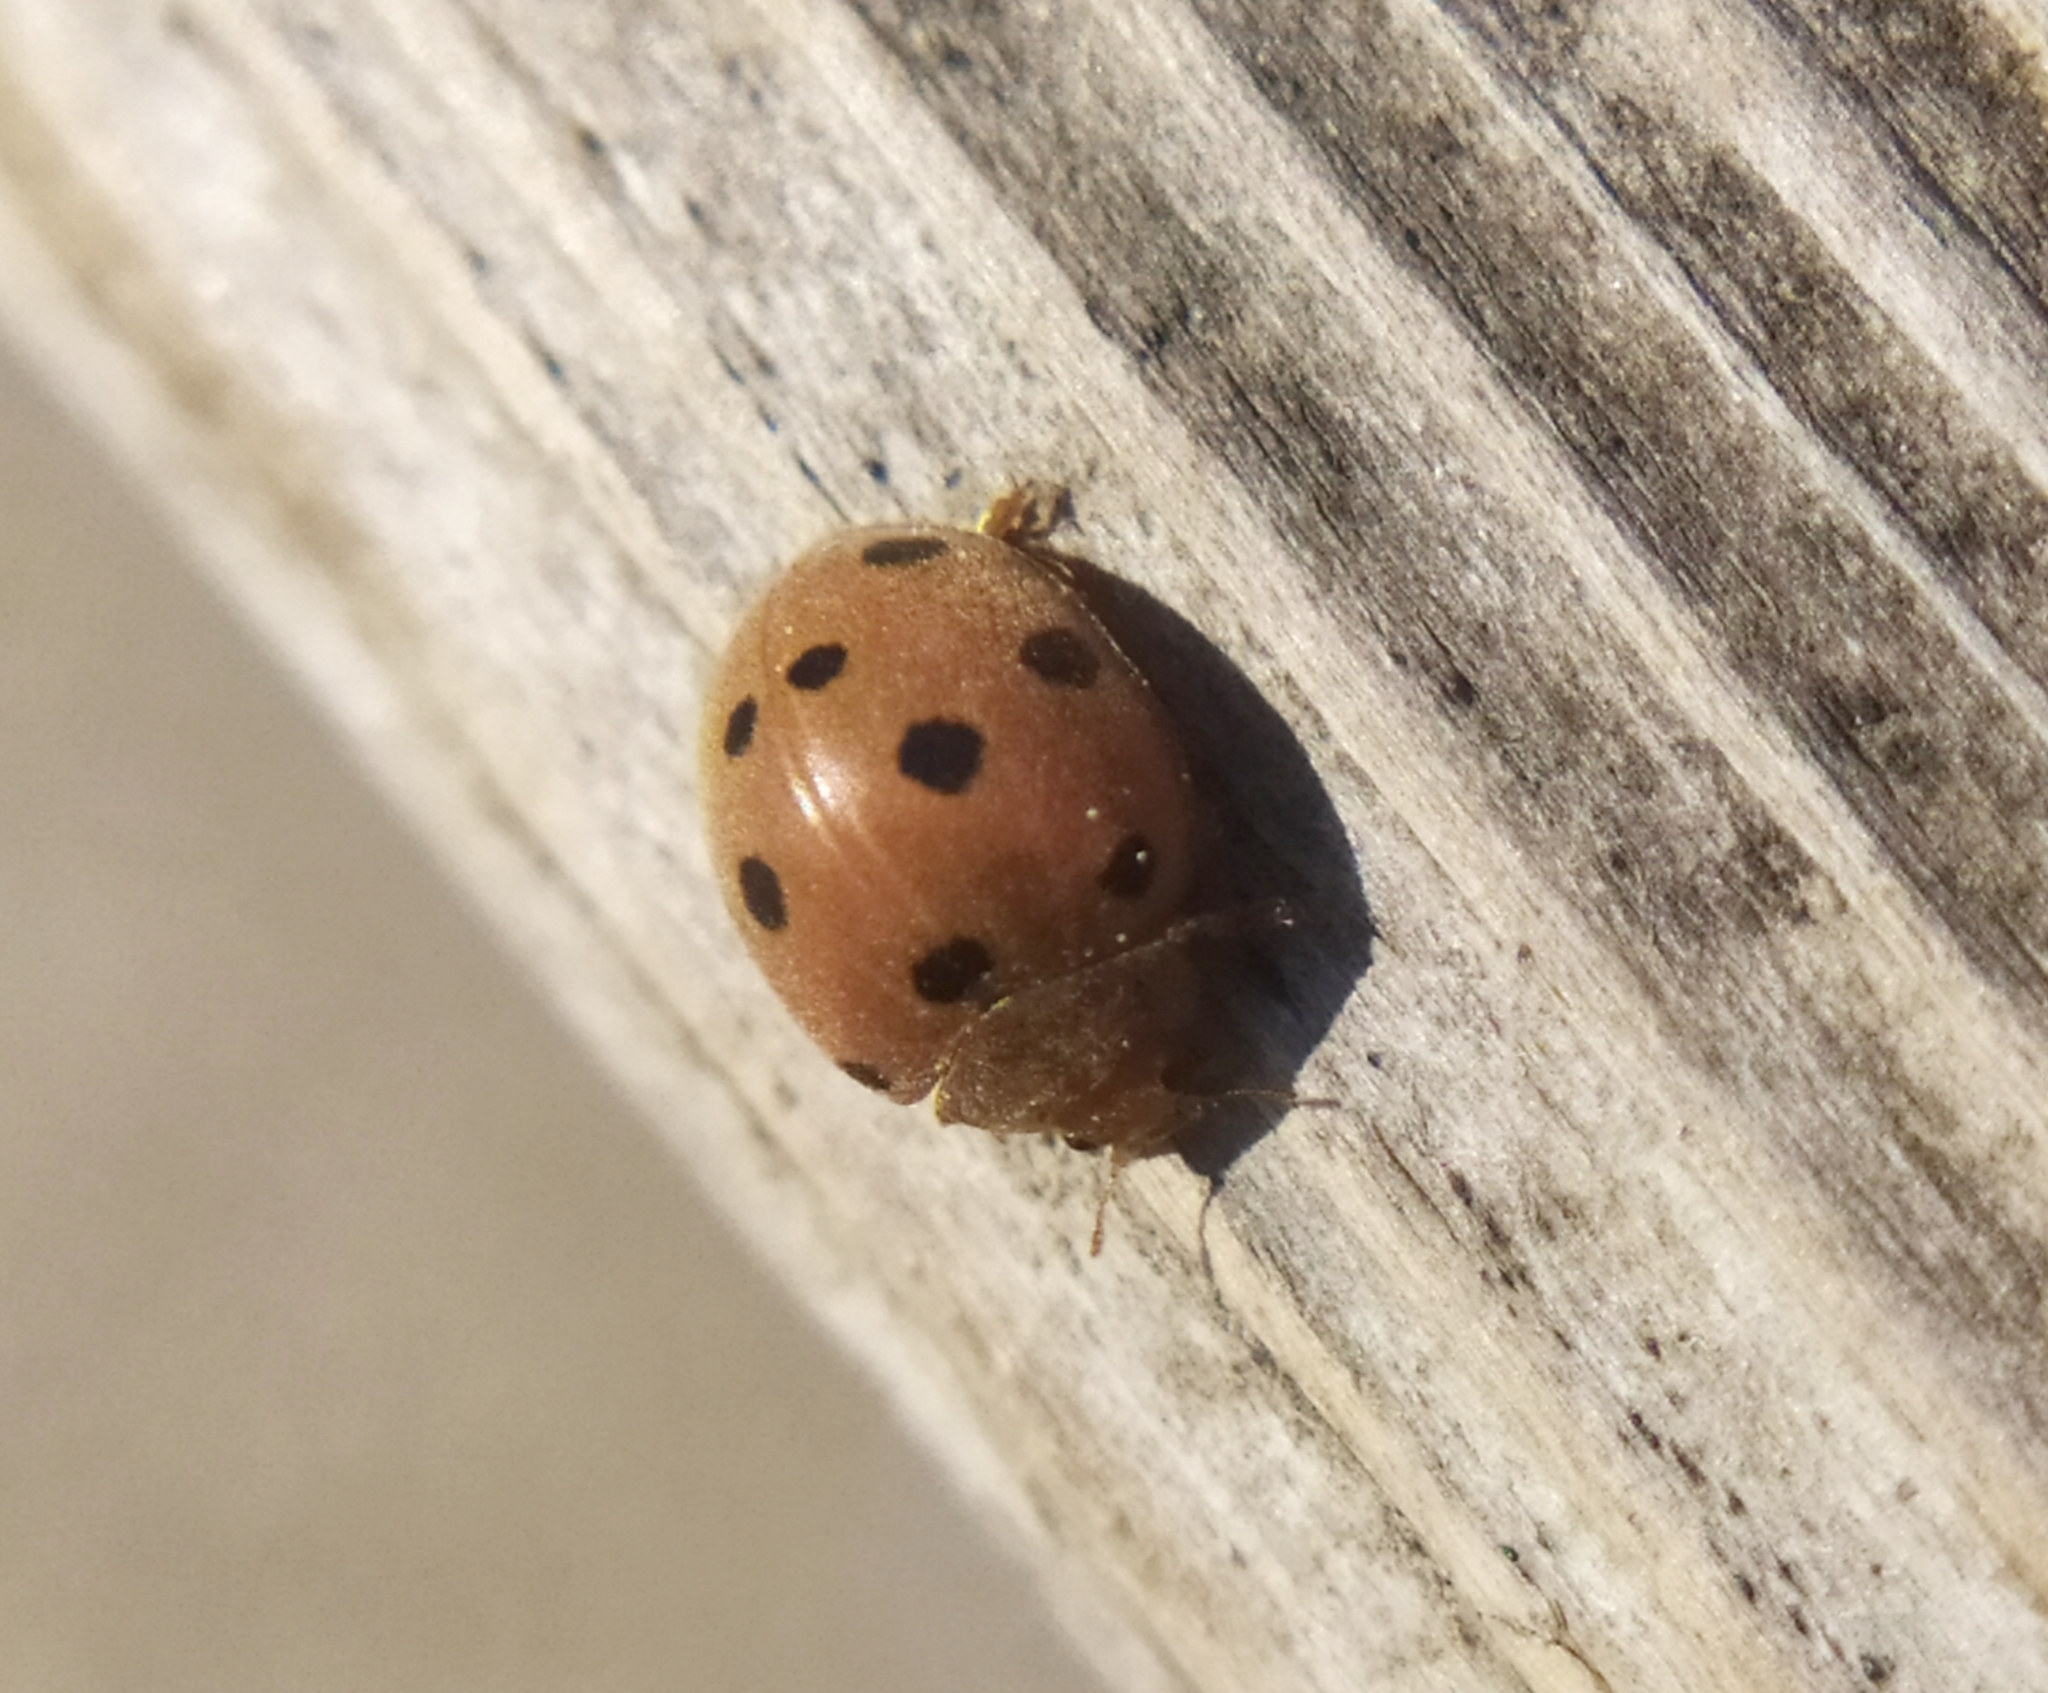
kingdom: Animalia
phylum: Arthropoda
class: Insecta
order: Coleoptera
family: Coccinellidae
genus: Henosepilachna
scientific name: Henosepilachna argus
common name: Bryony ladybird
